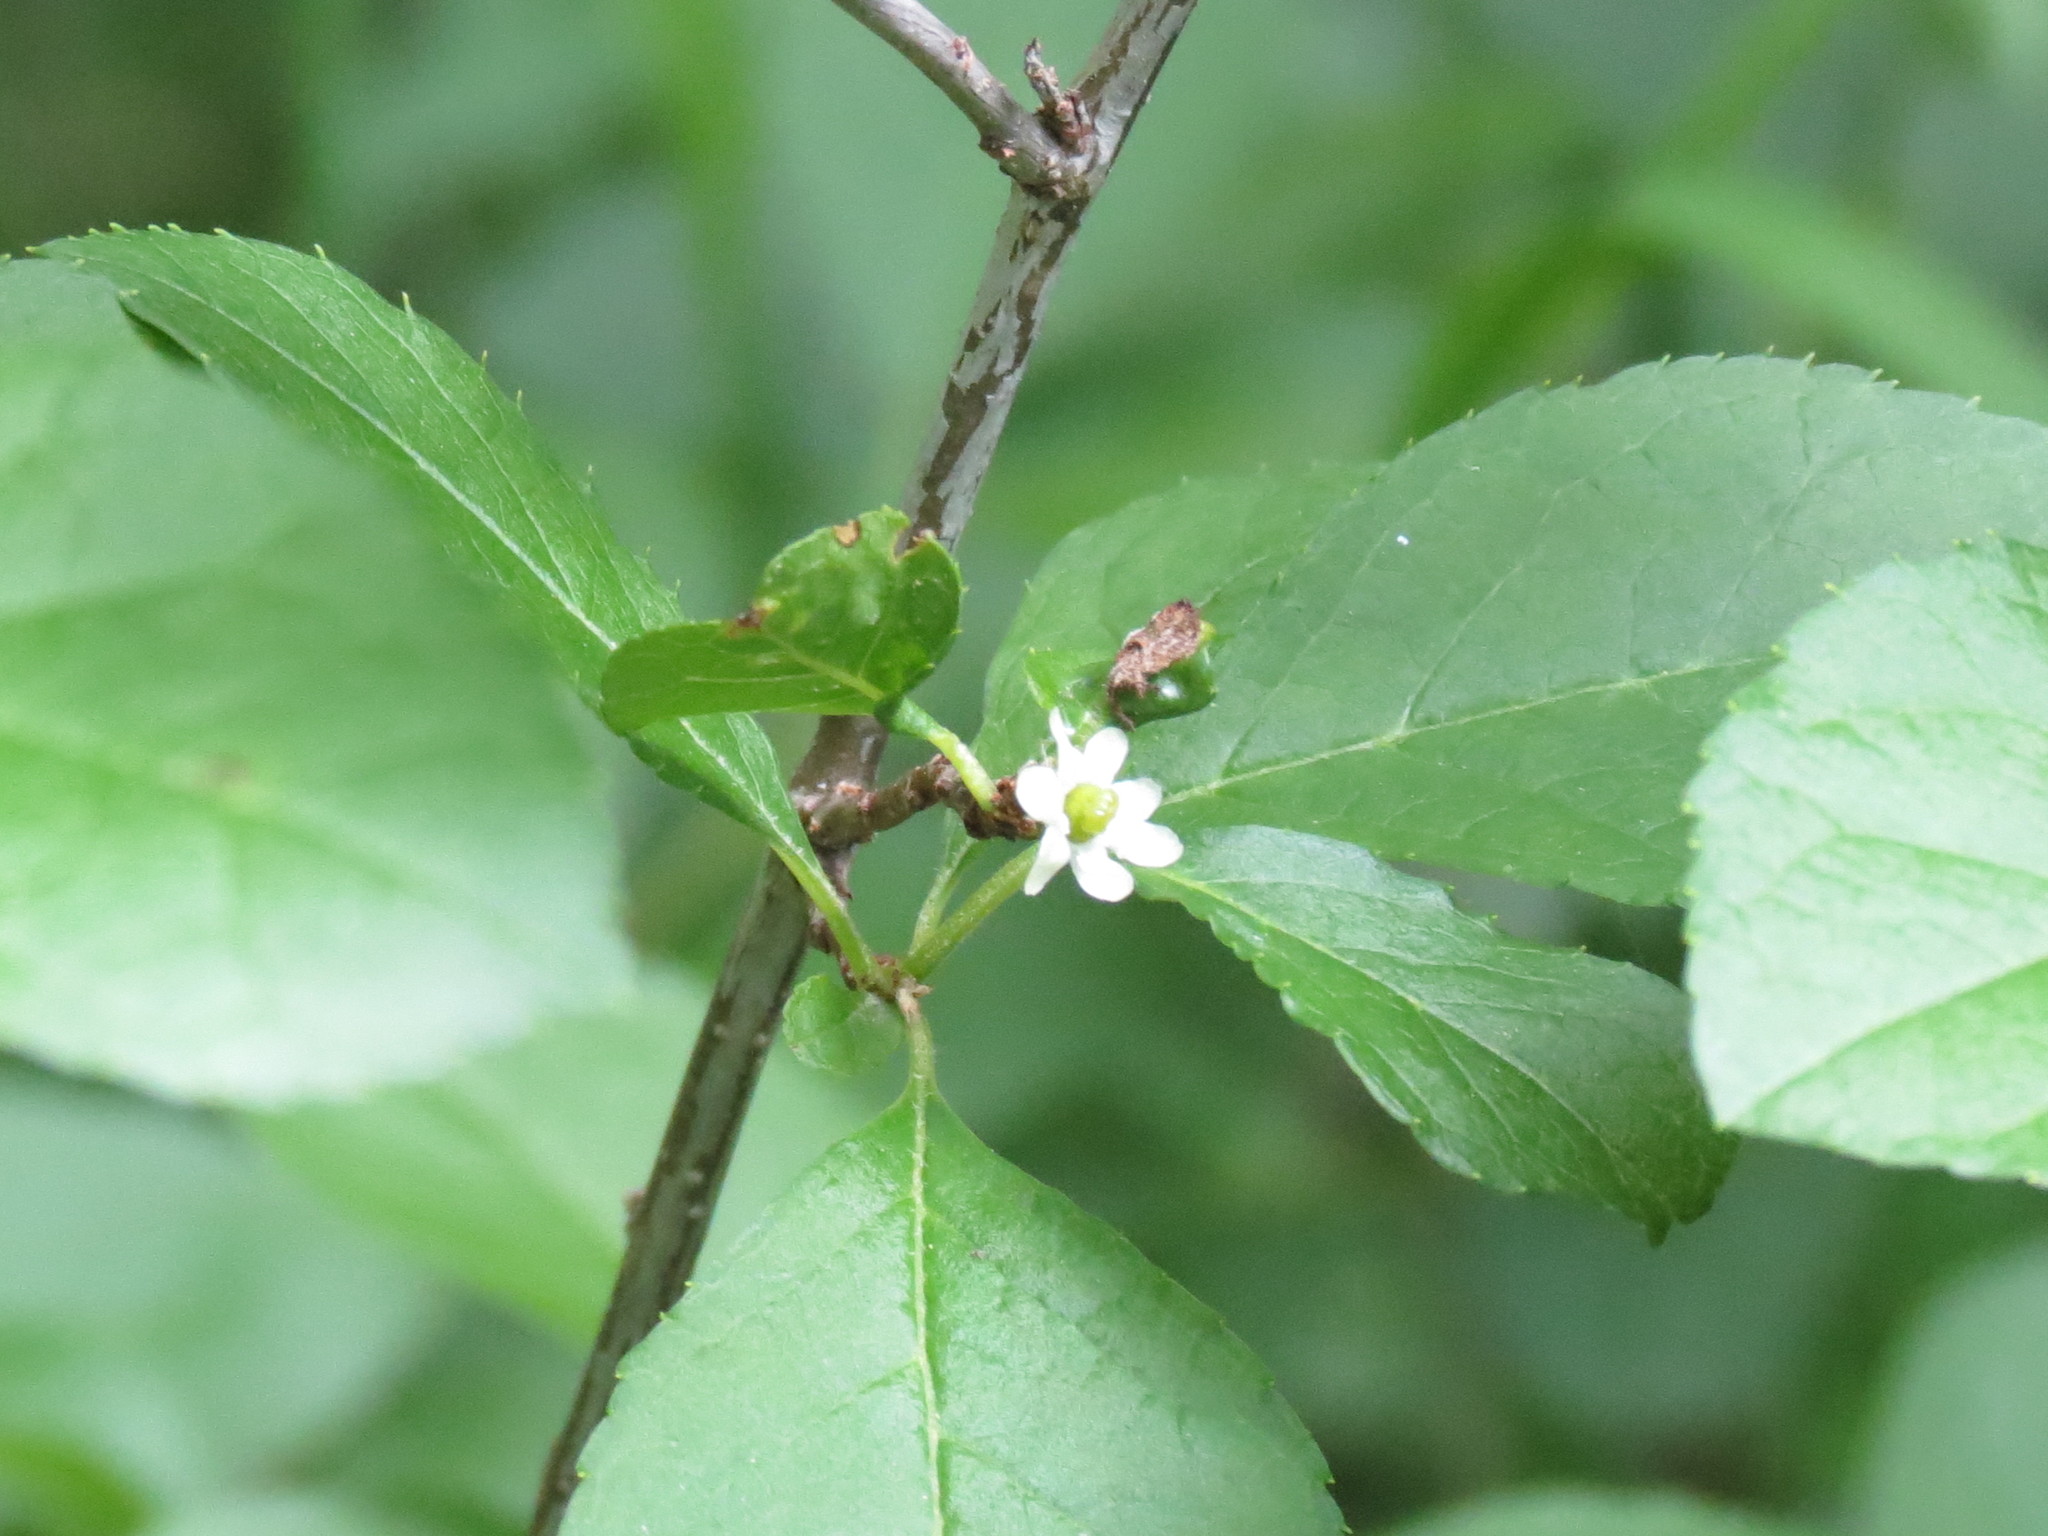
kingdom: Plantae
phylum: Tracheophyta
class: Magnoliopsida
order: Aquifoliales
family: Aquifoliaceae
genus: Ilex
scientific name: Ilex verticillata
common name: Virginia winterberry
